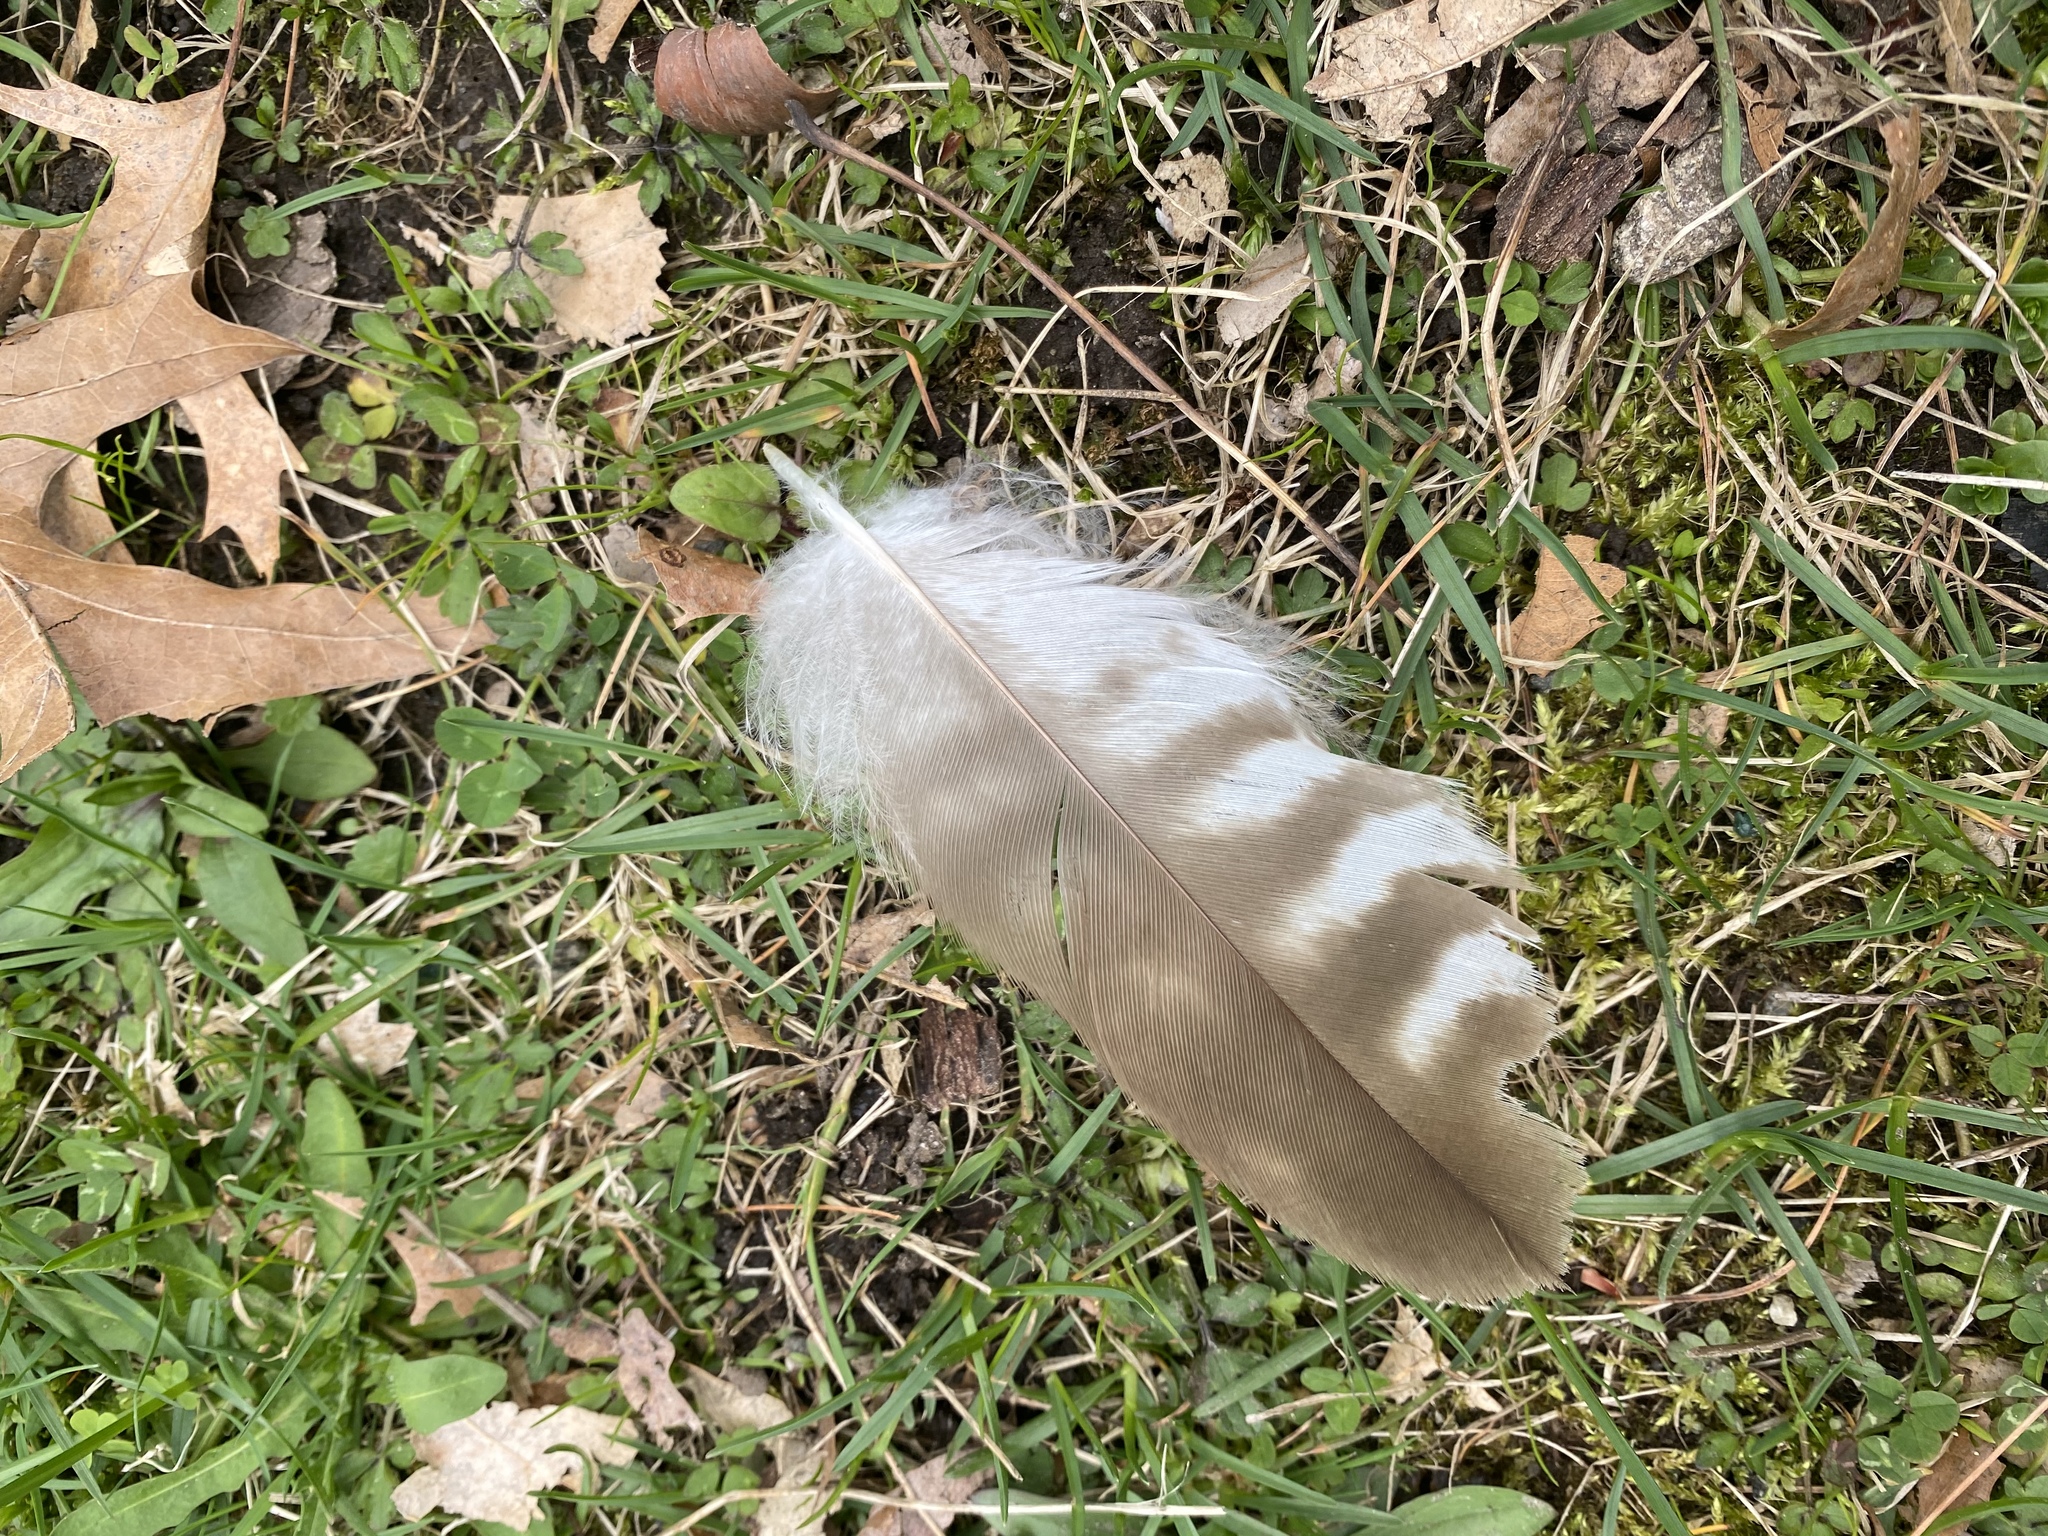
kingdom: Animalia
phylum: Chordata
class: Aves
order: Accipitriformes
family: Accipitridae
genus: Buteo
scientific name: Buteo jamaicensis
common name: Red-tailed hawk
